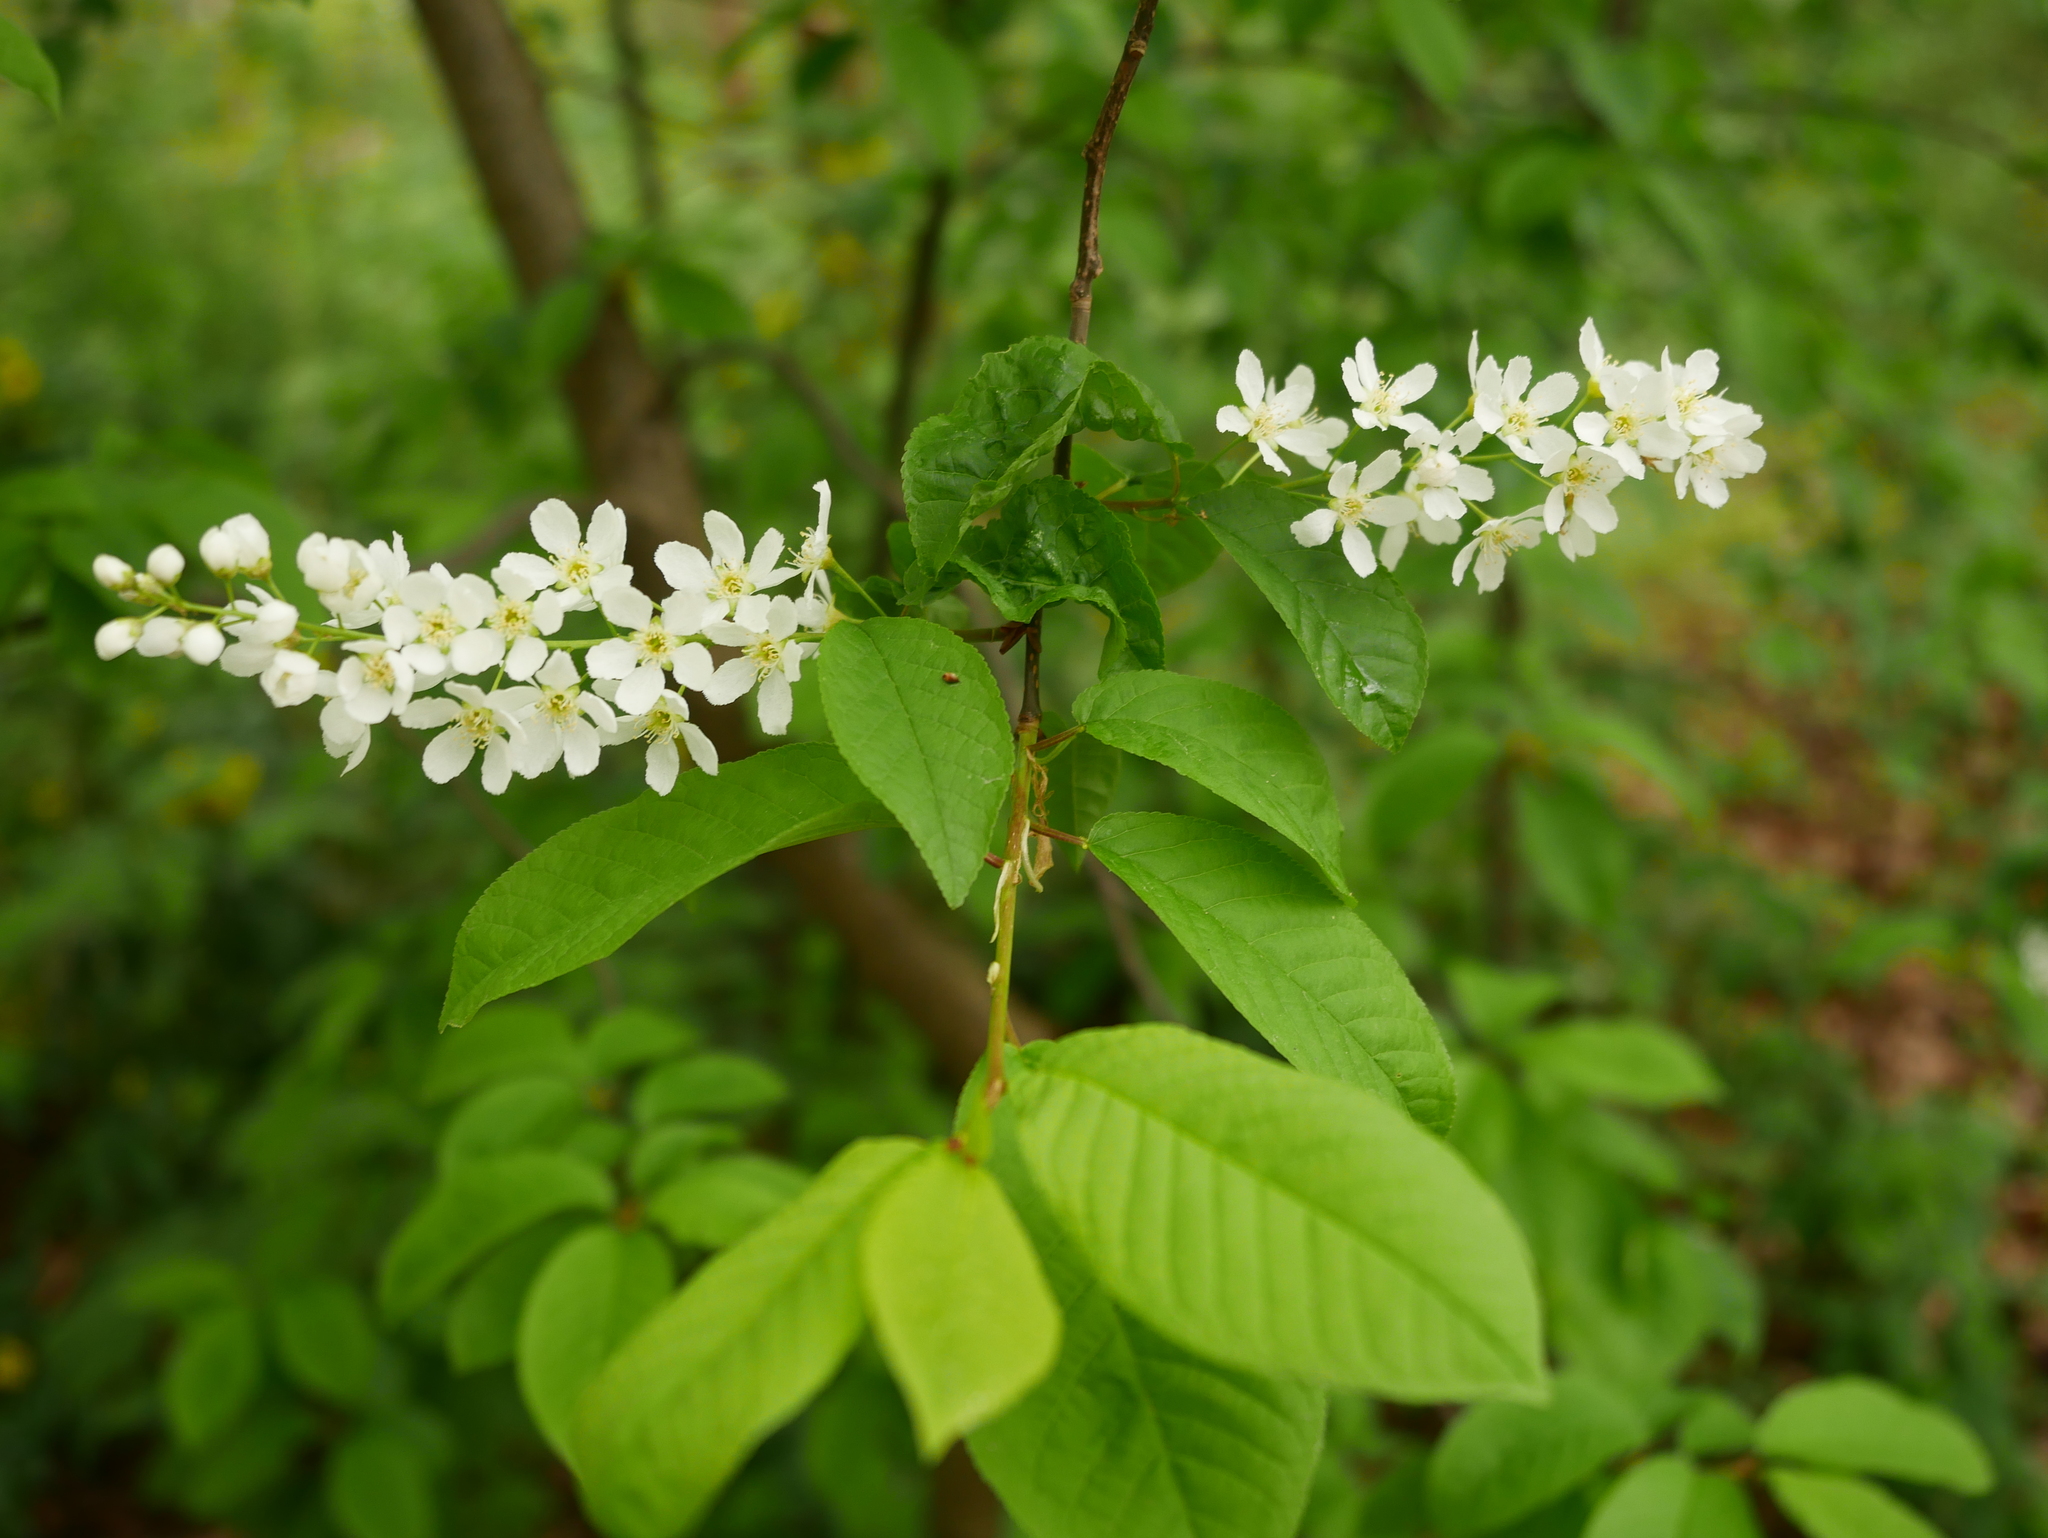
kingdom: Plantae
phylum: Tracheophyta
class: Magnoliopsida
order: Rosales
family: Rosaceae
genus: Prunus
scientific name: Prunus padus
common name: Bird cherry
